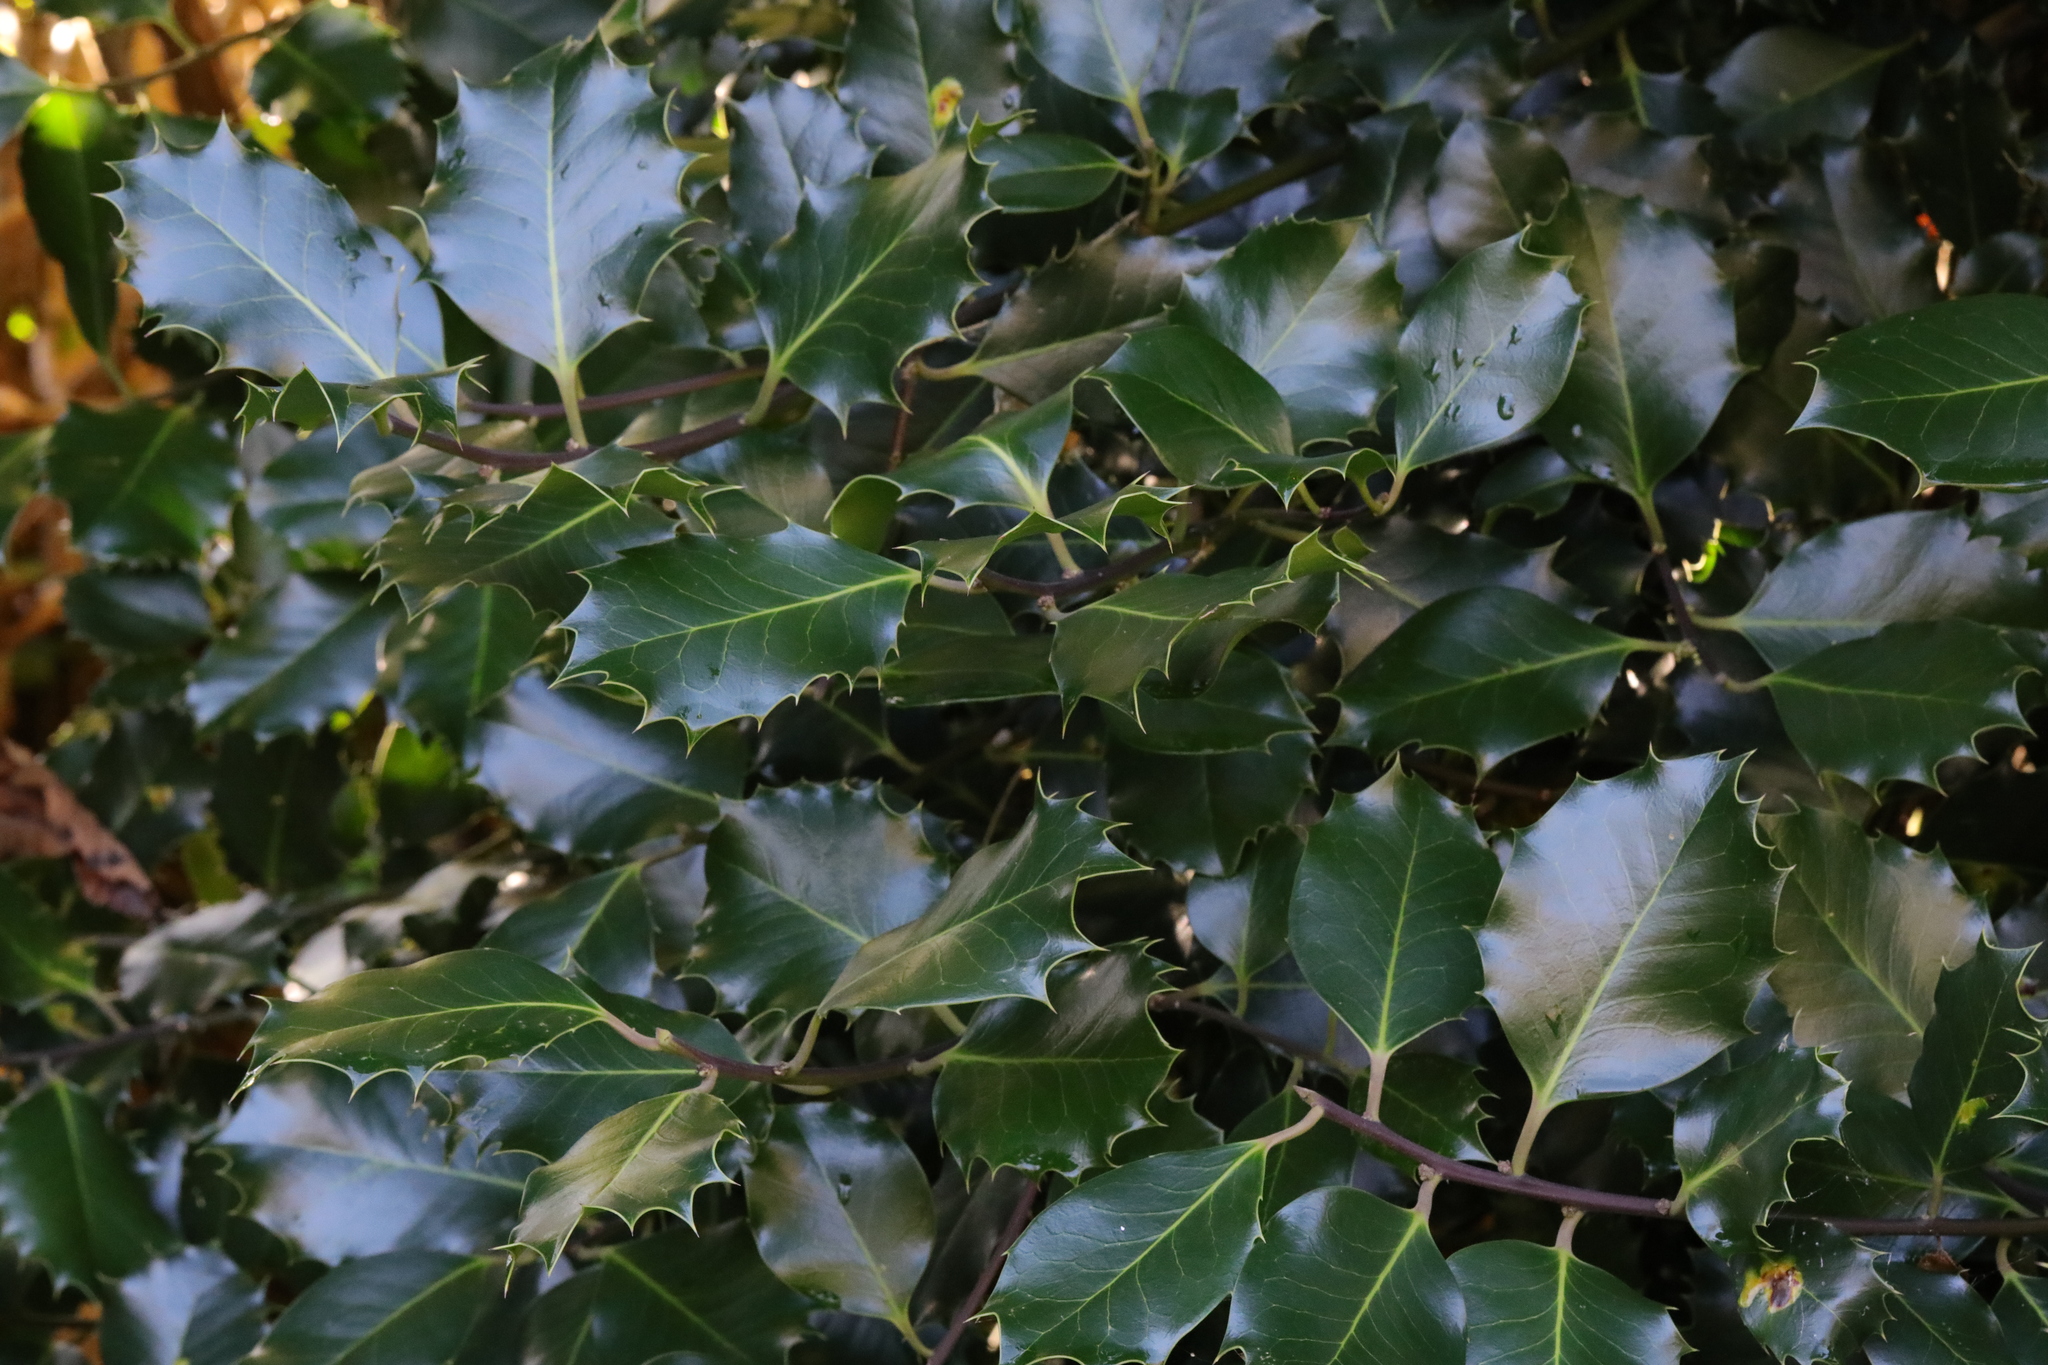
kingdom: Plantae
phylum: Tracheophyta
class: Magnoliopsida
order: Aquifoliales
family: Aquifoliaceae
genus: Ilex
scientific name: Ilex aquifolium
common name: English holly
